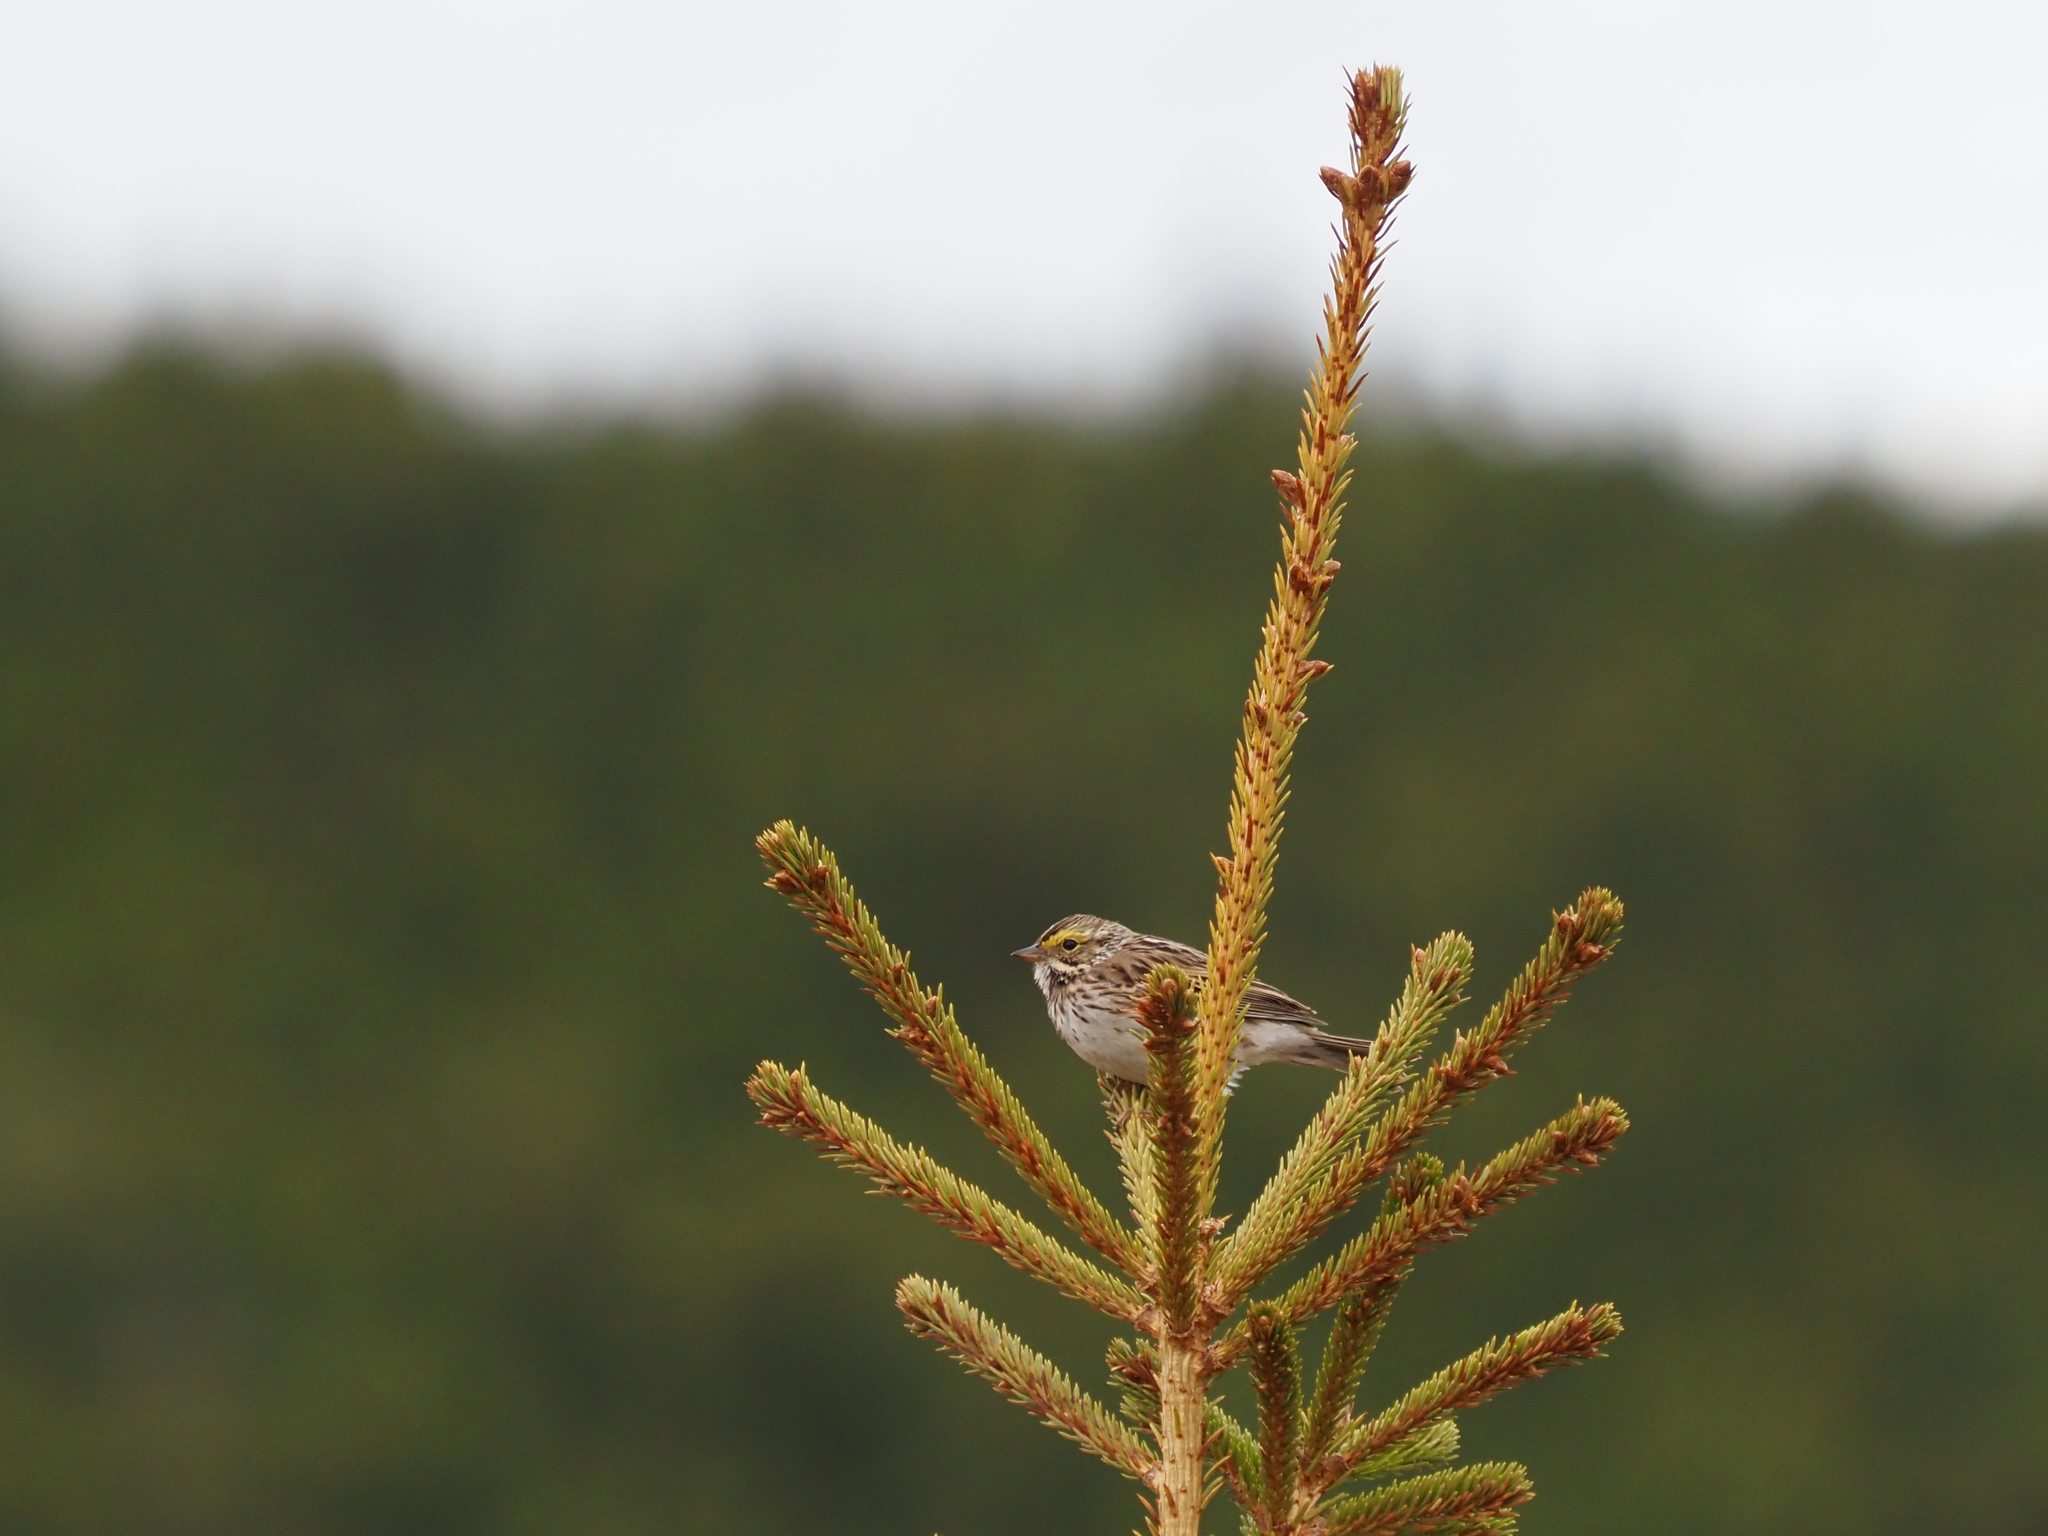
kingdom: Animalia
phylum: Chordata
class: Aves
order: Passeriformes
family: Passerellidae
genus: Passerculus
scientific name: Passerculus sandwichensis
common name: Savannah sparrow
